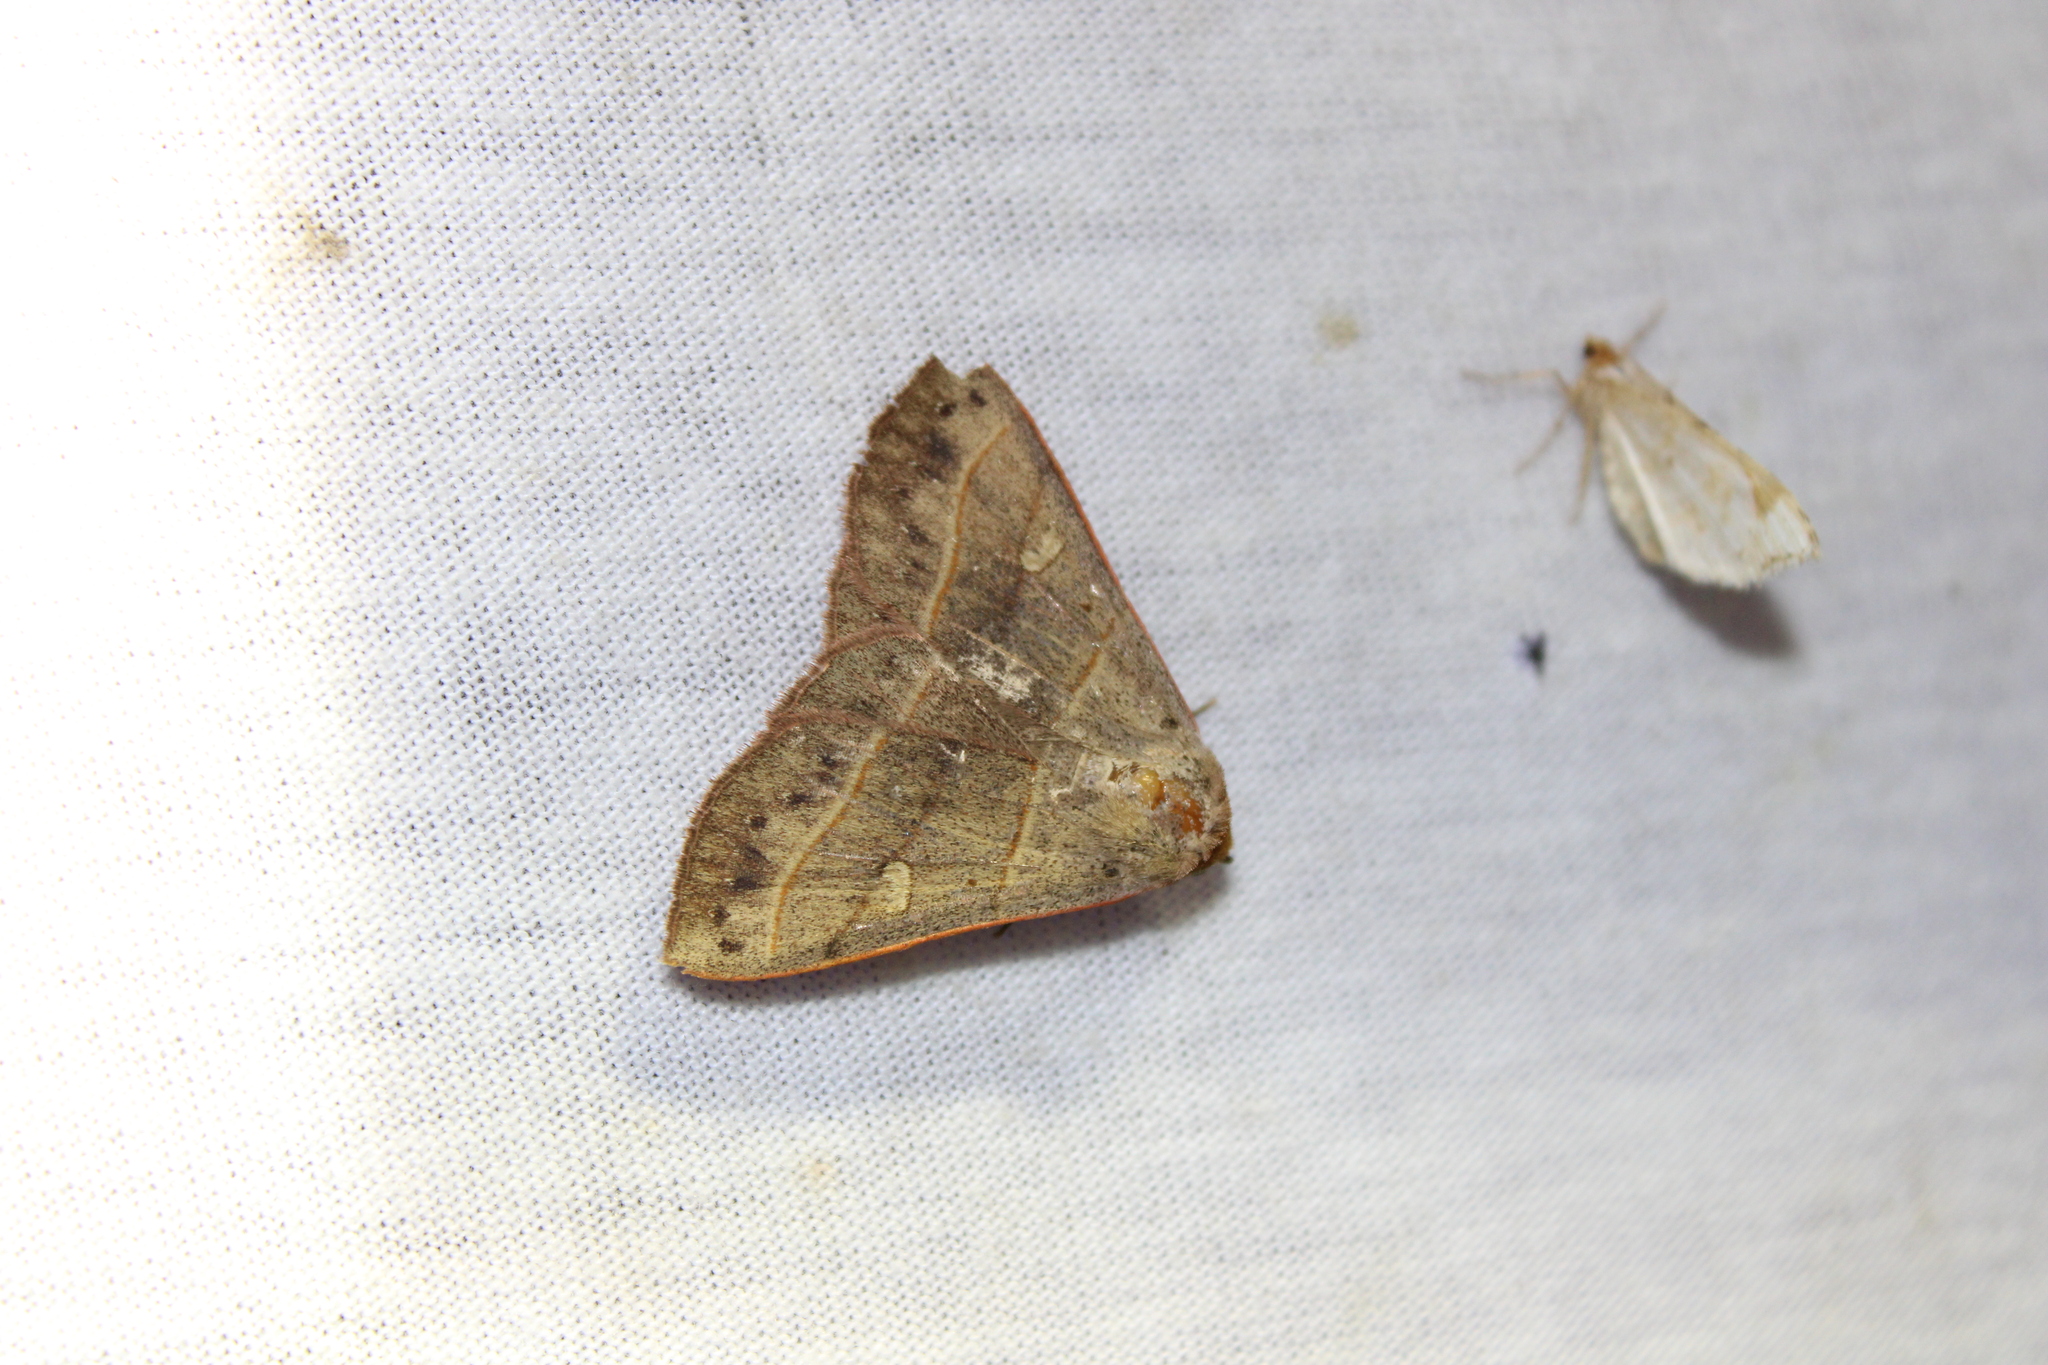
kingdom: Animalia
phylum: Arthropoda
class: Insecta
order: Lepidoptera
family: Erebidae
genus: Panopoda
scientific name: Panopoda rufimargo
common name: Red-lined panopoda moth
